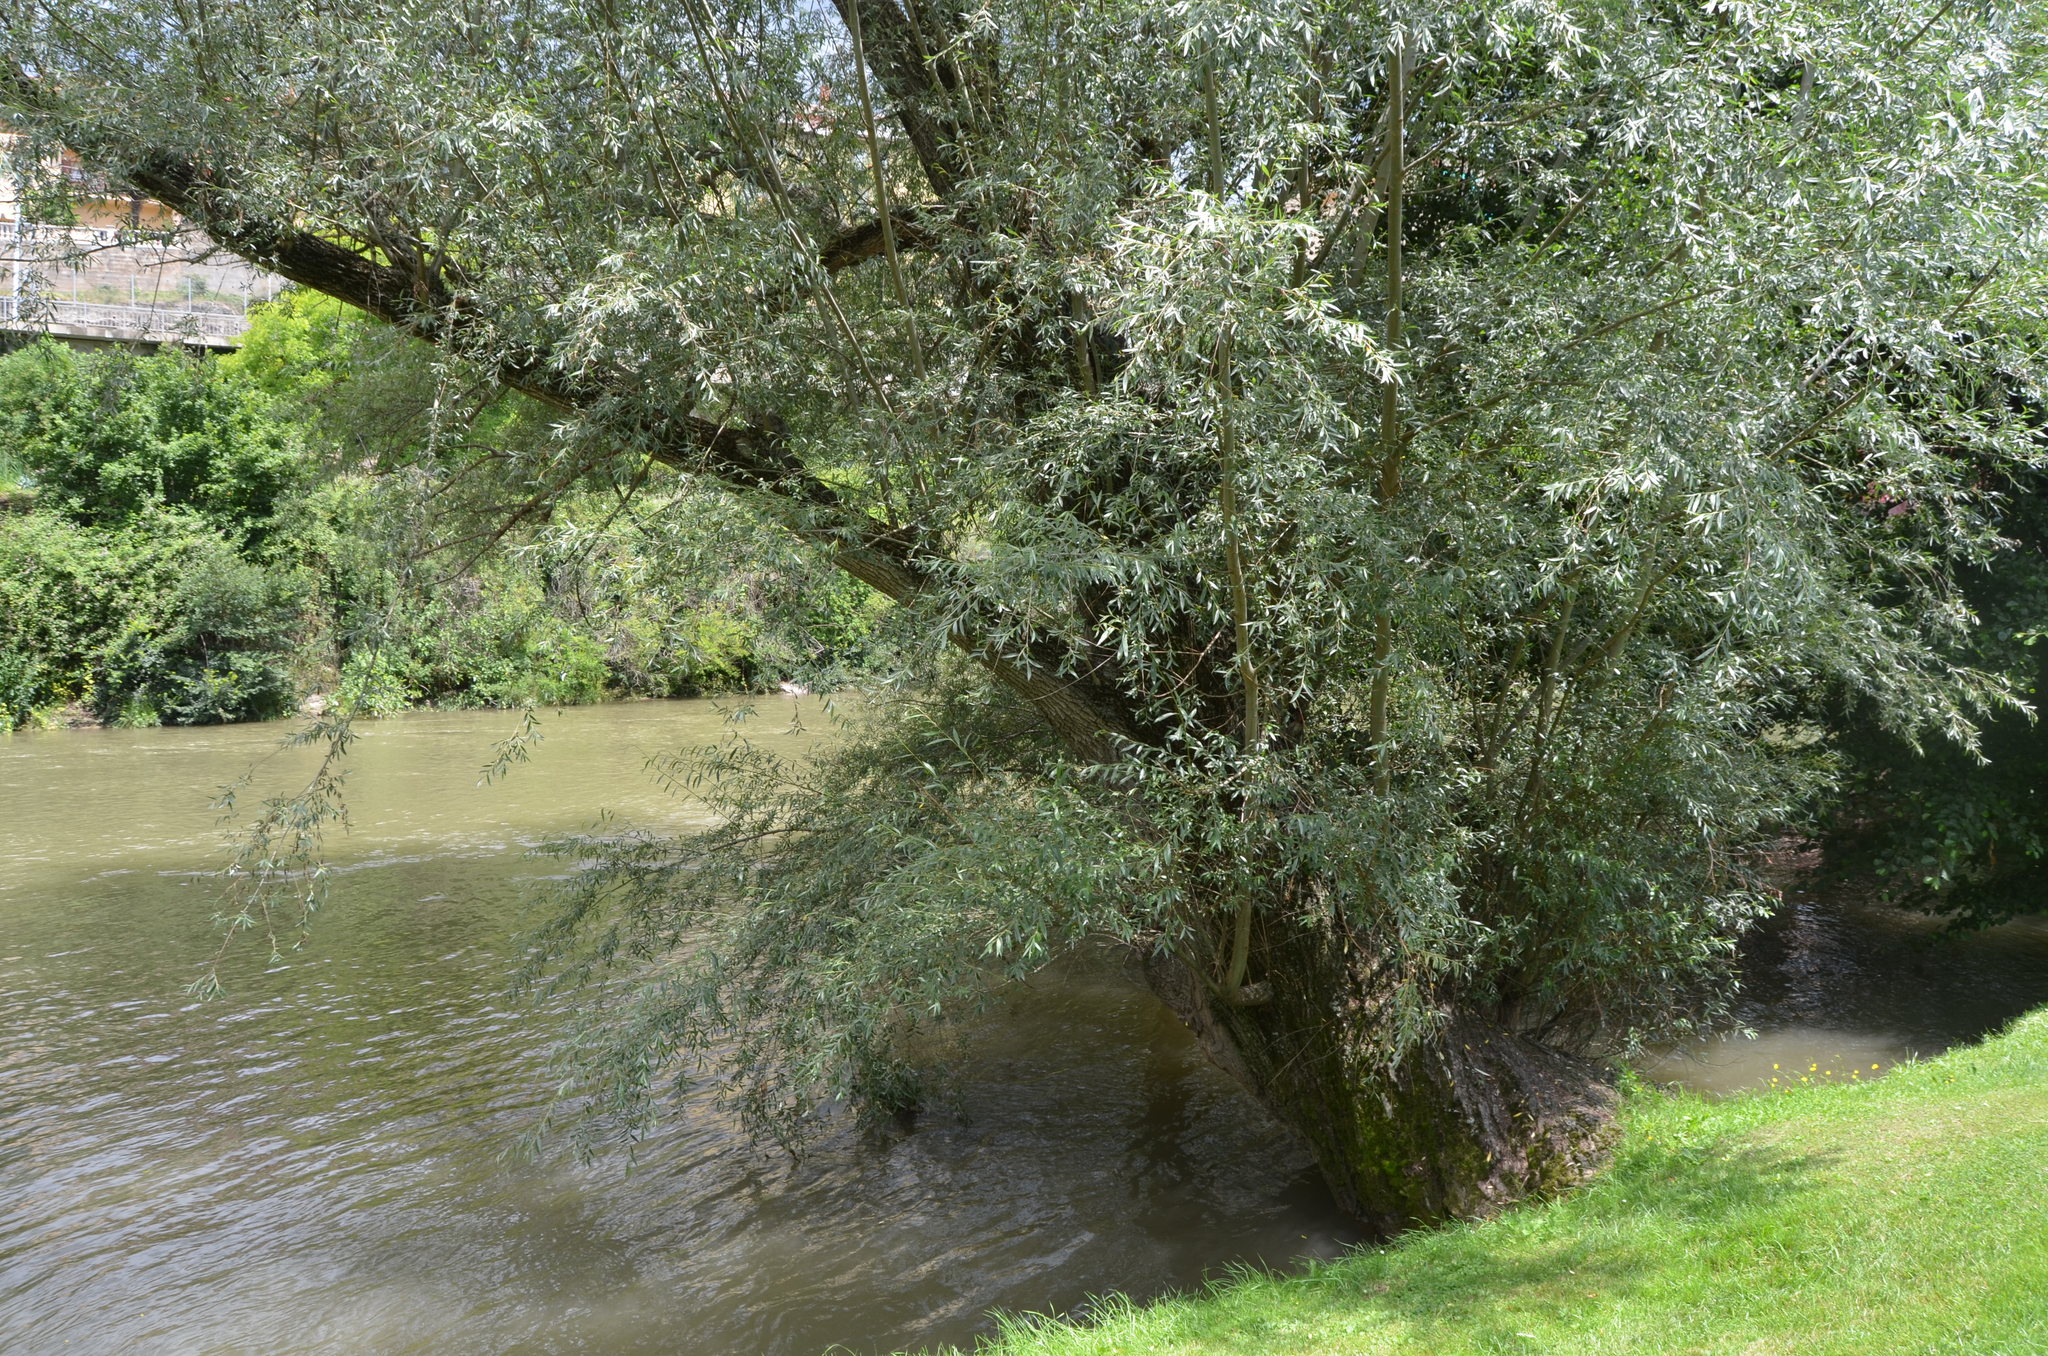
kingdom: Plantae
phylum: Tracheophyta
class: Magnoliopsida
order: Malpighiales
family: Salicaceae
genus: Salix
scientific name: Salix alba
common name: White willow
